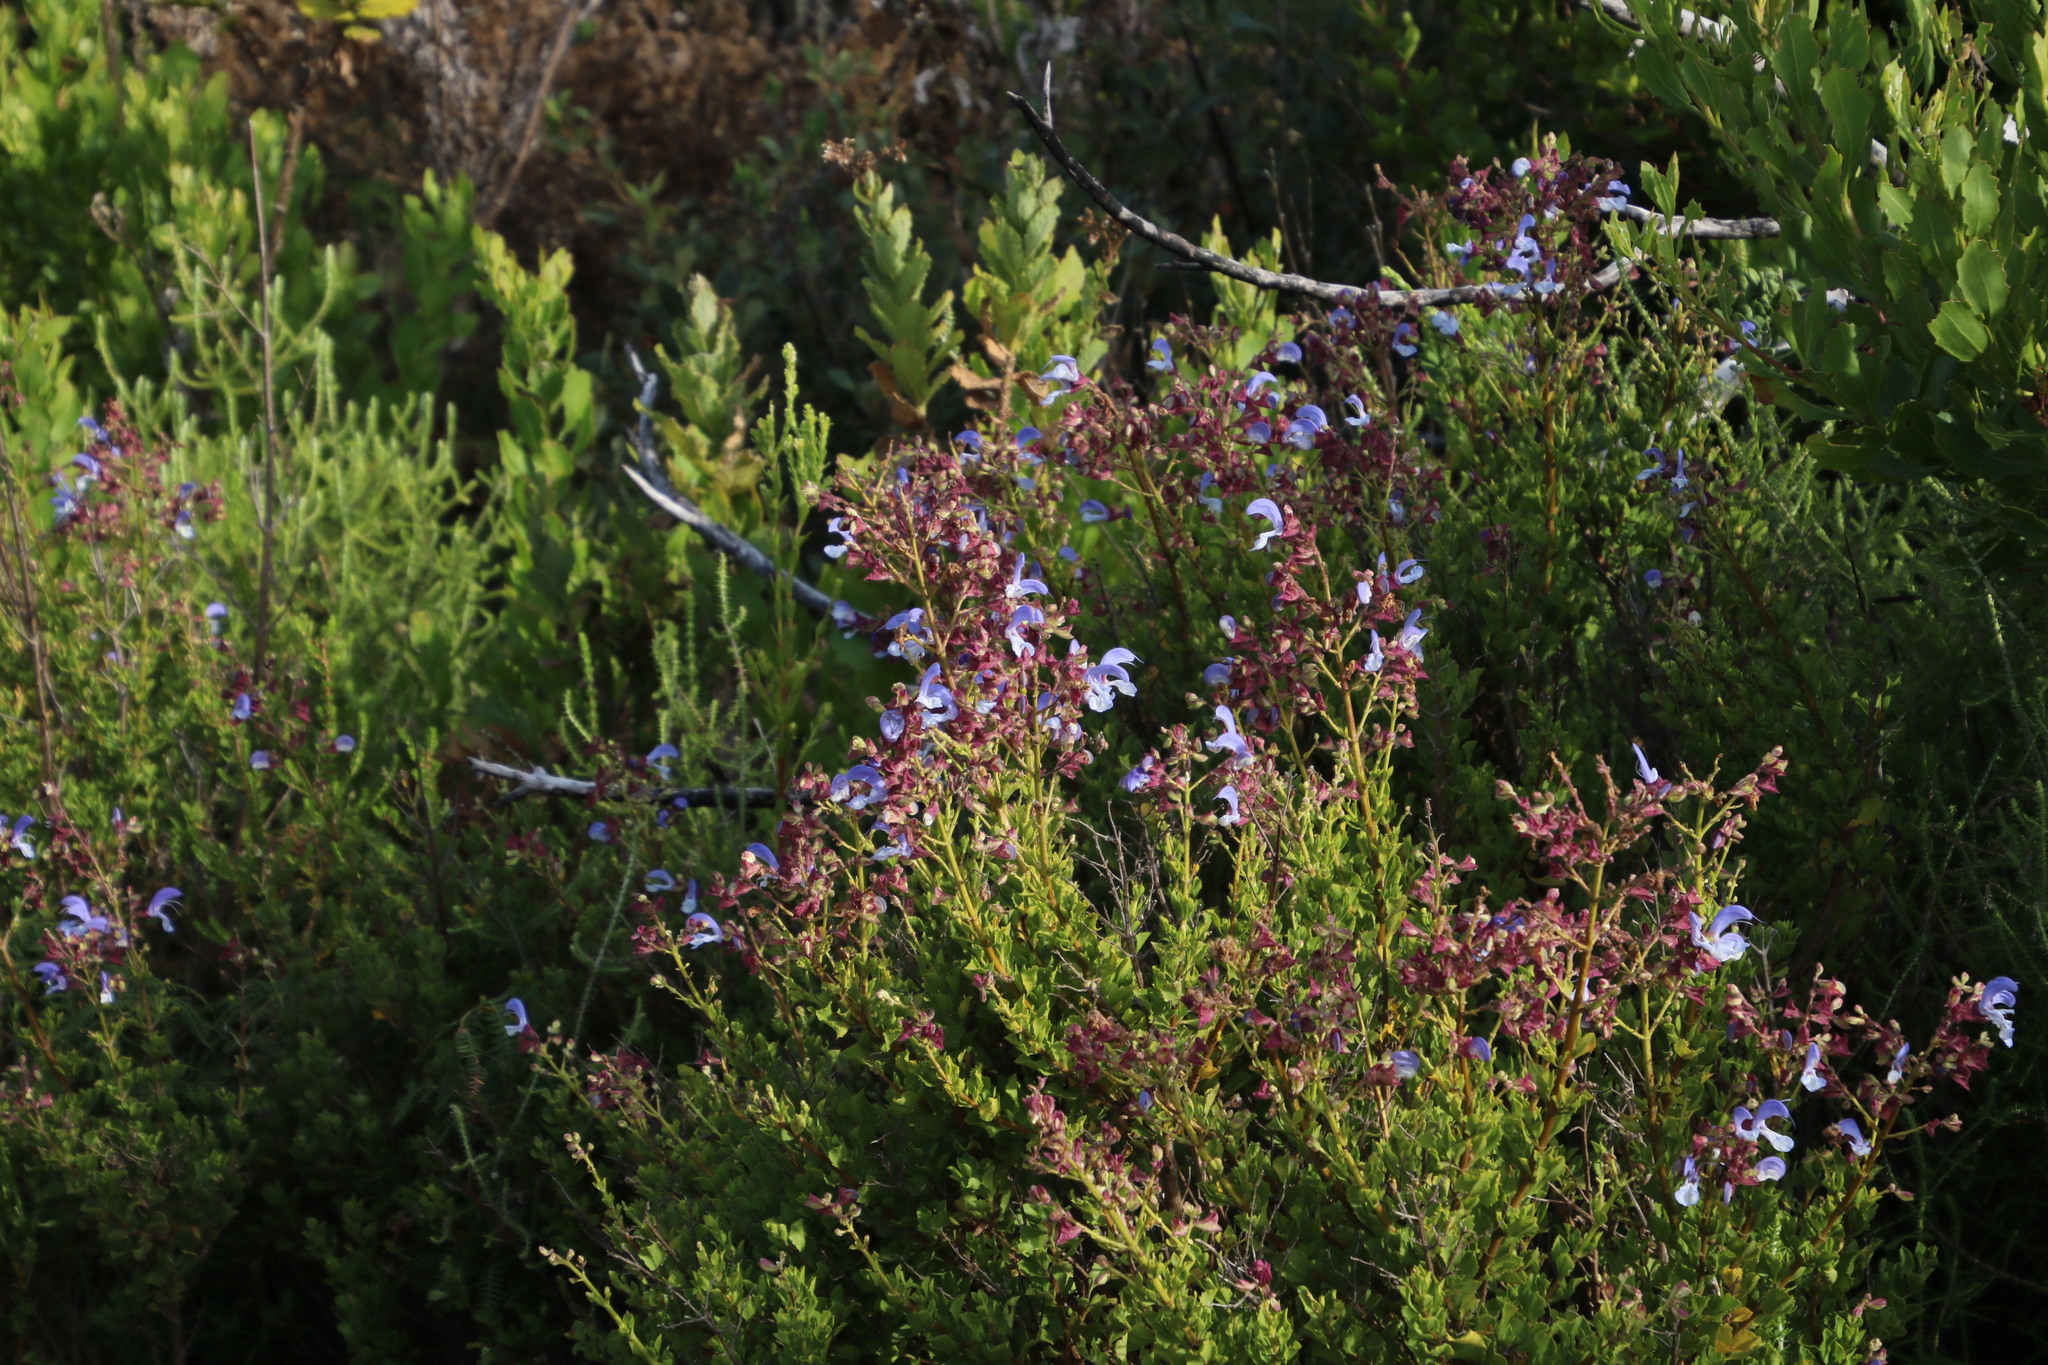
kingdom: Plantae
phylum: Tracheophyta
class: Magnoliopsida
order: Lamiales
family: Lamiaceae
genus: Salvia
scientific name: Salvia chamelaeagnea
